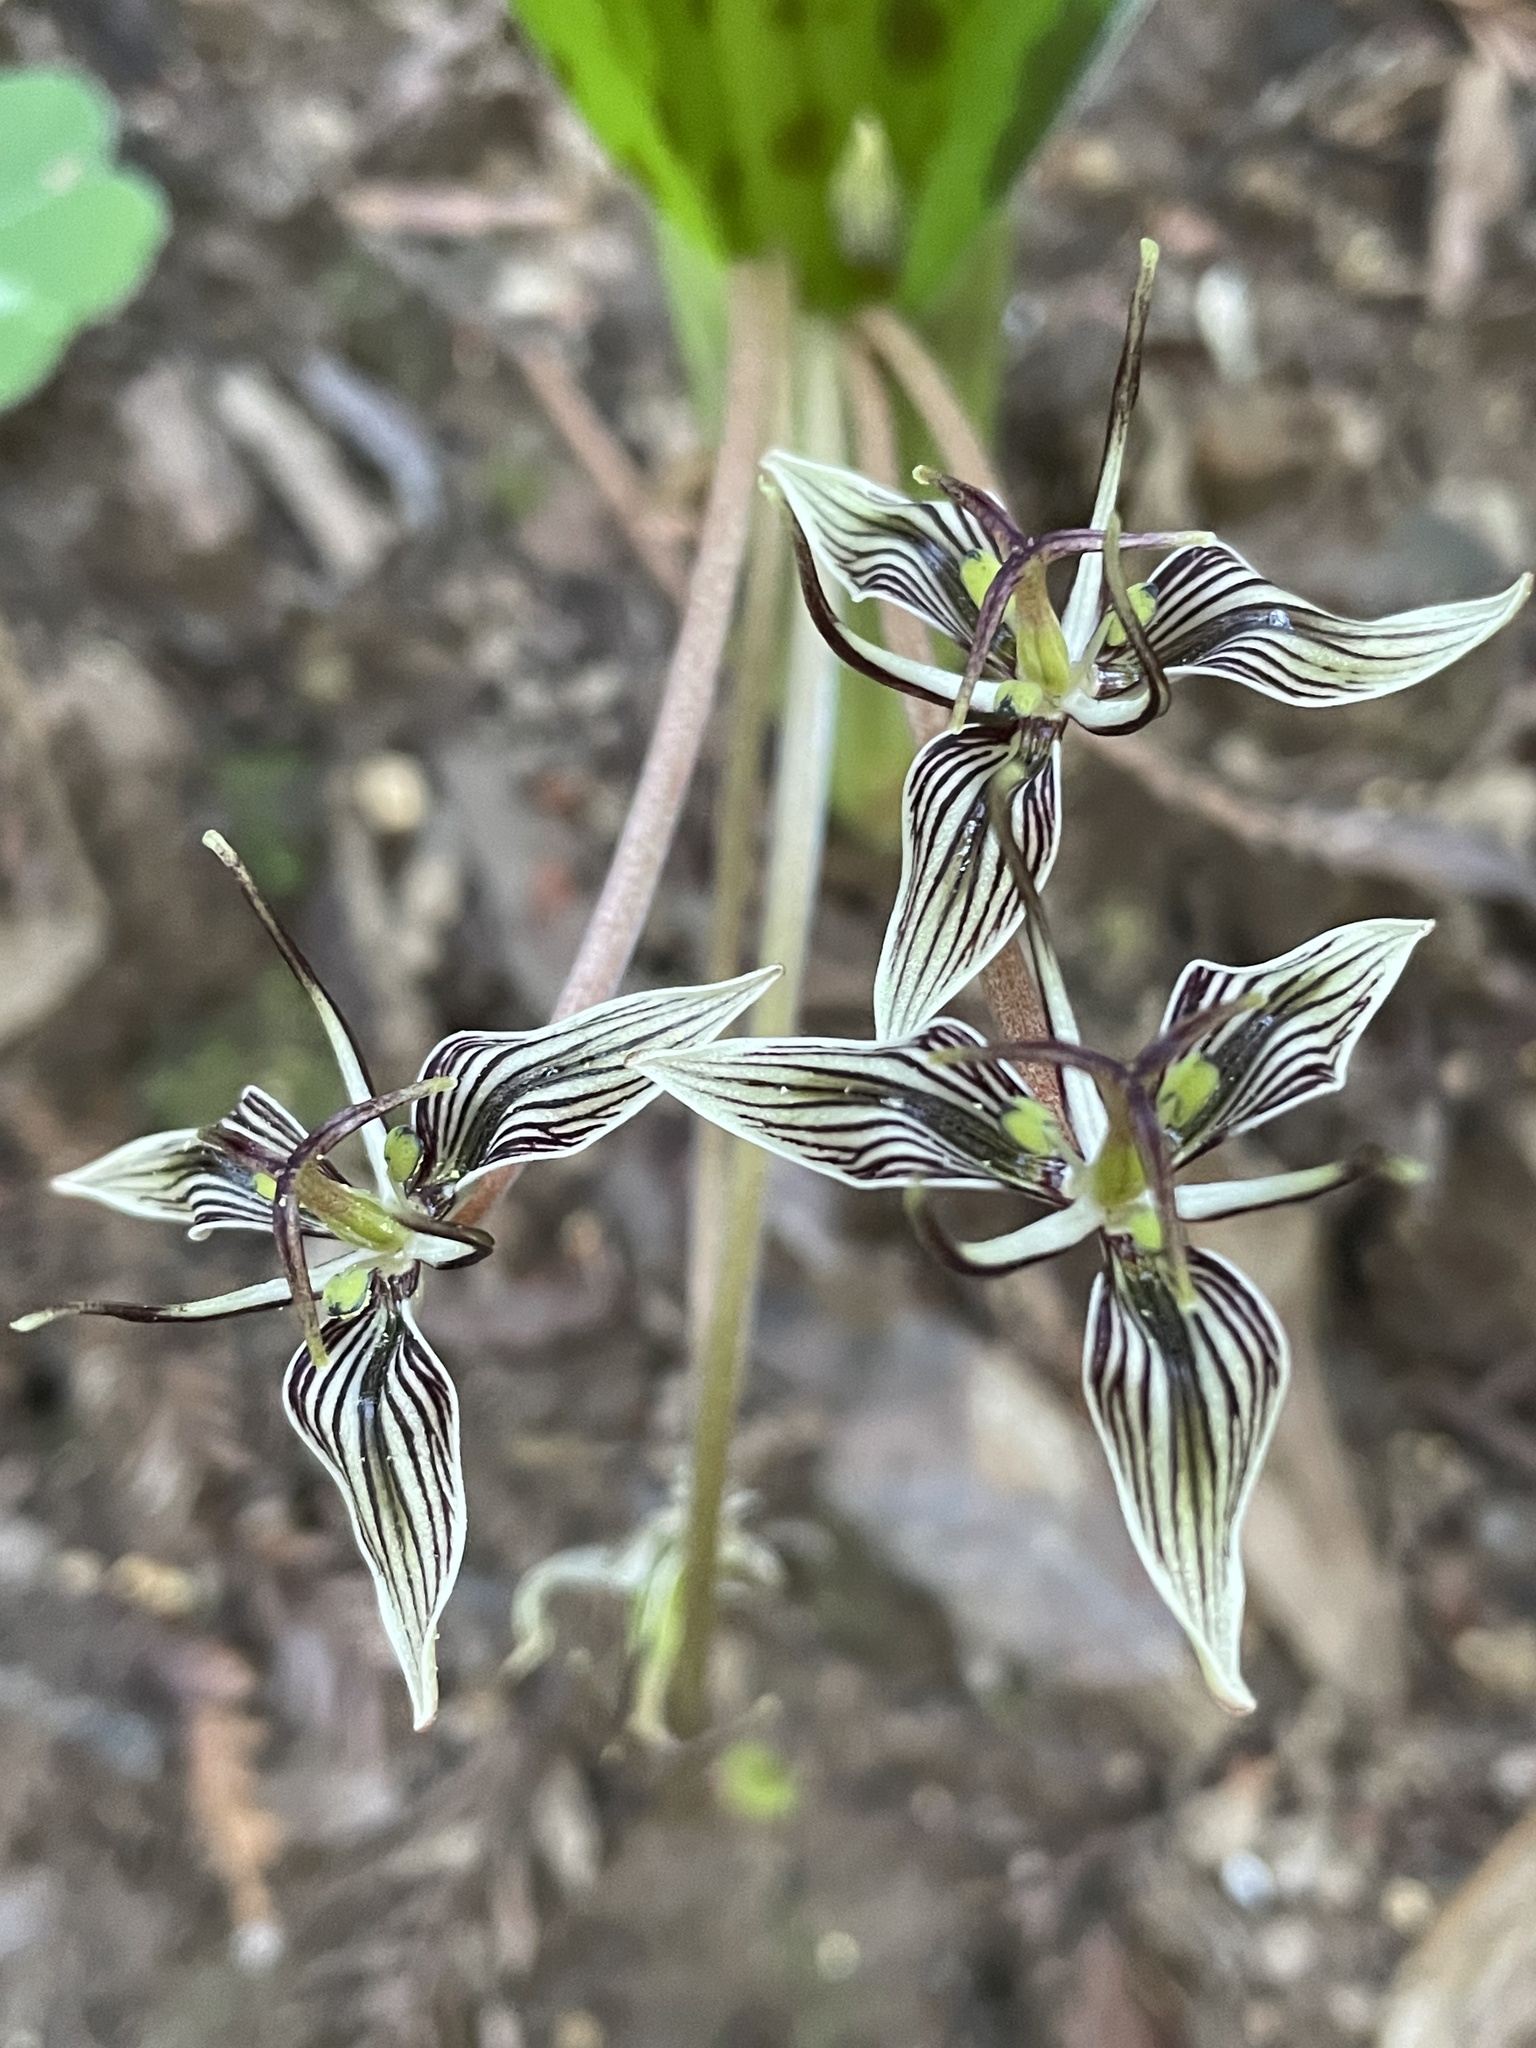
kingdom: Plantae
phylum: Tracheophyta
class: Liliopsida
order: Liliales
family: Liliaceae
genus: Scoliopus
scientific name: Scoliopus bigelovii
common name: Foetid adder's-tongue
